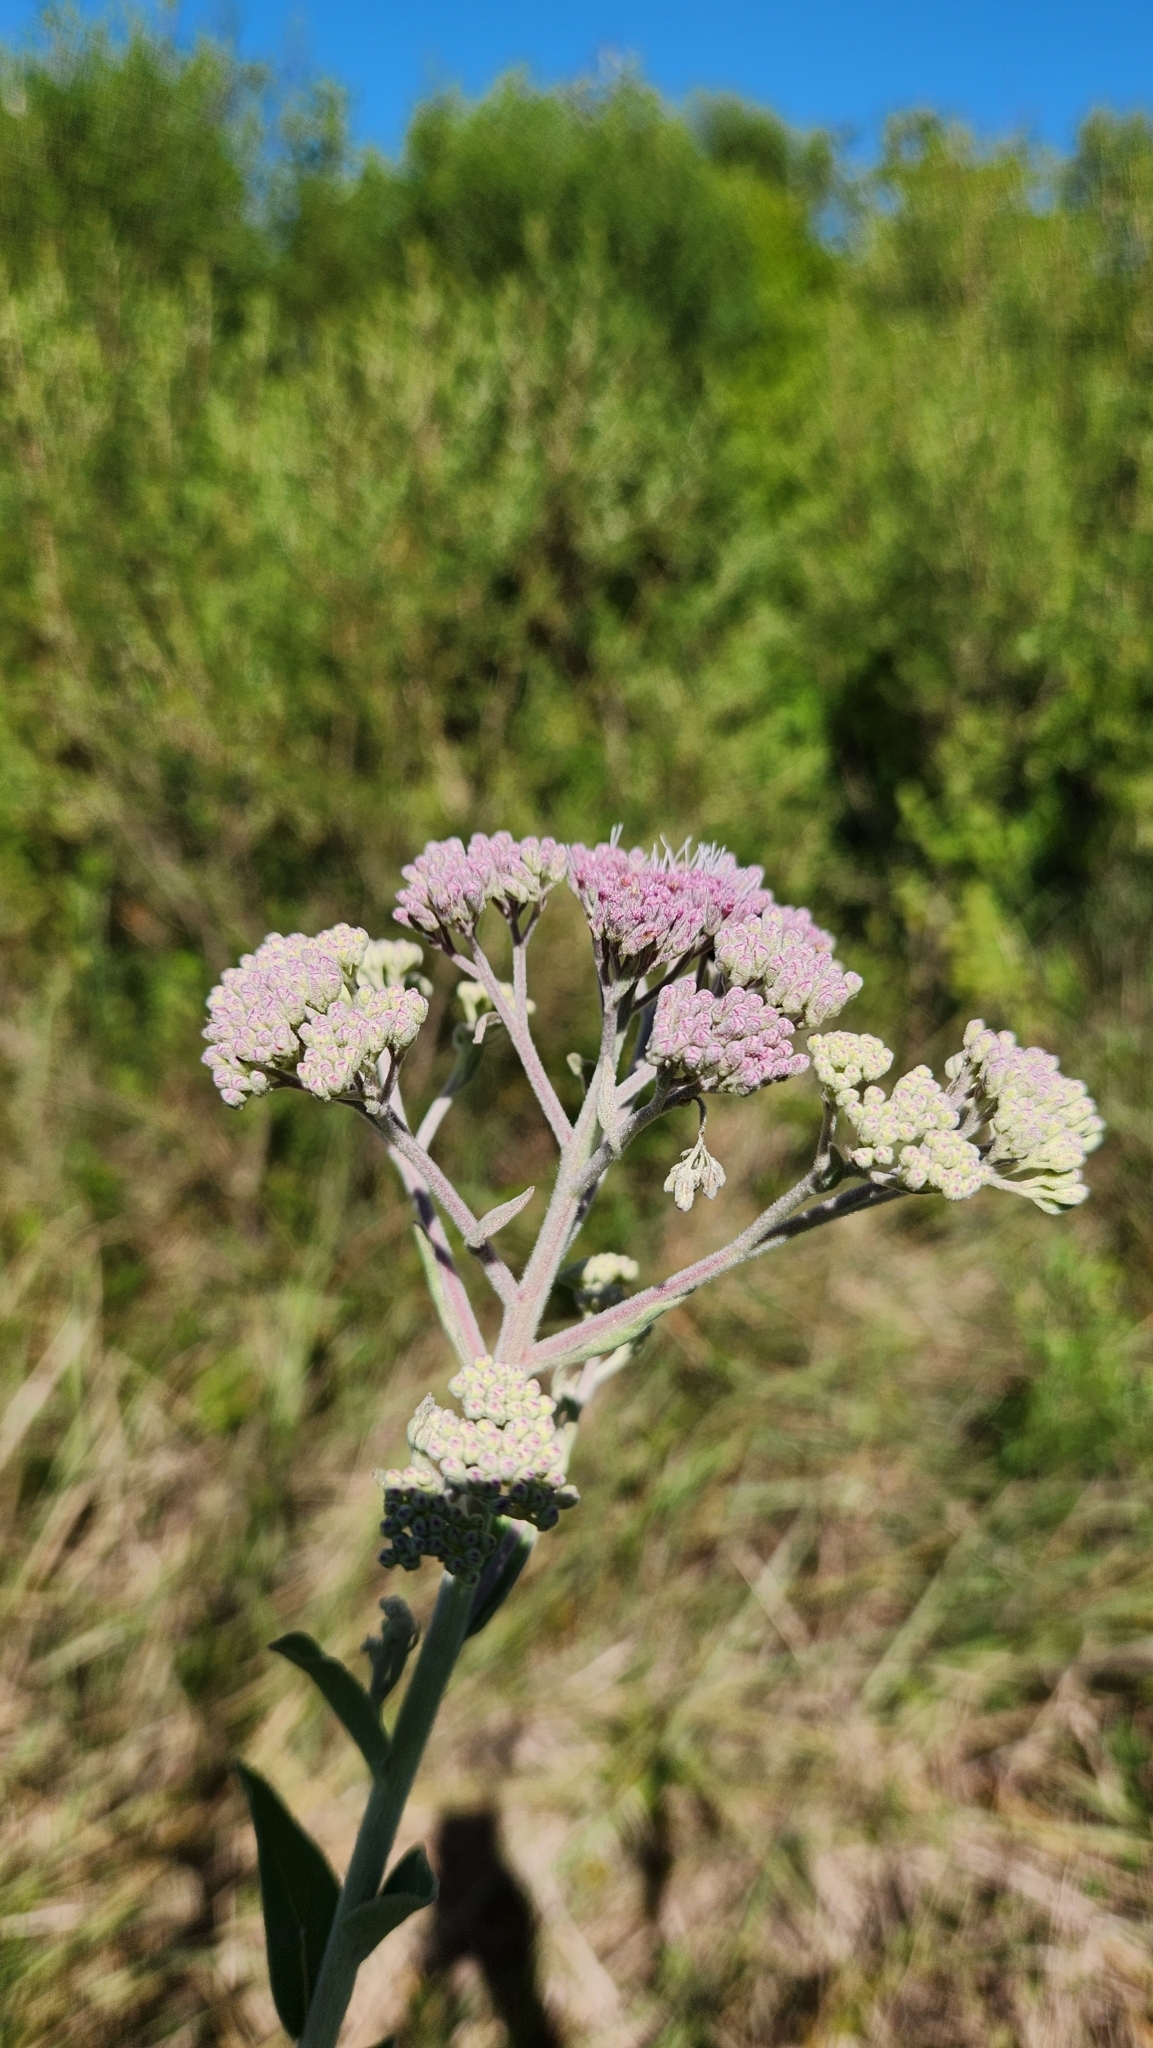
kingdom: Plantae
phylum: Tracheophyta
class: Magnoliopsida
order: Asterales
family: Asteraceae
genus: Disynaphia
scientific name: Disynaphia multicrenulata
